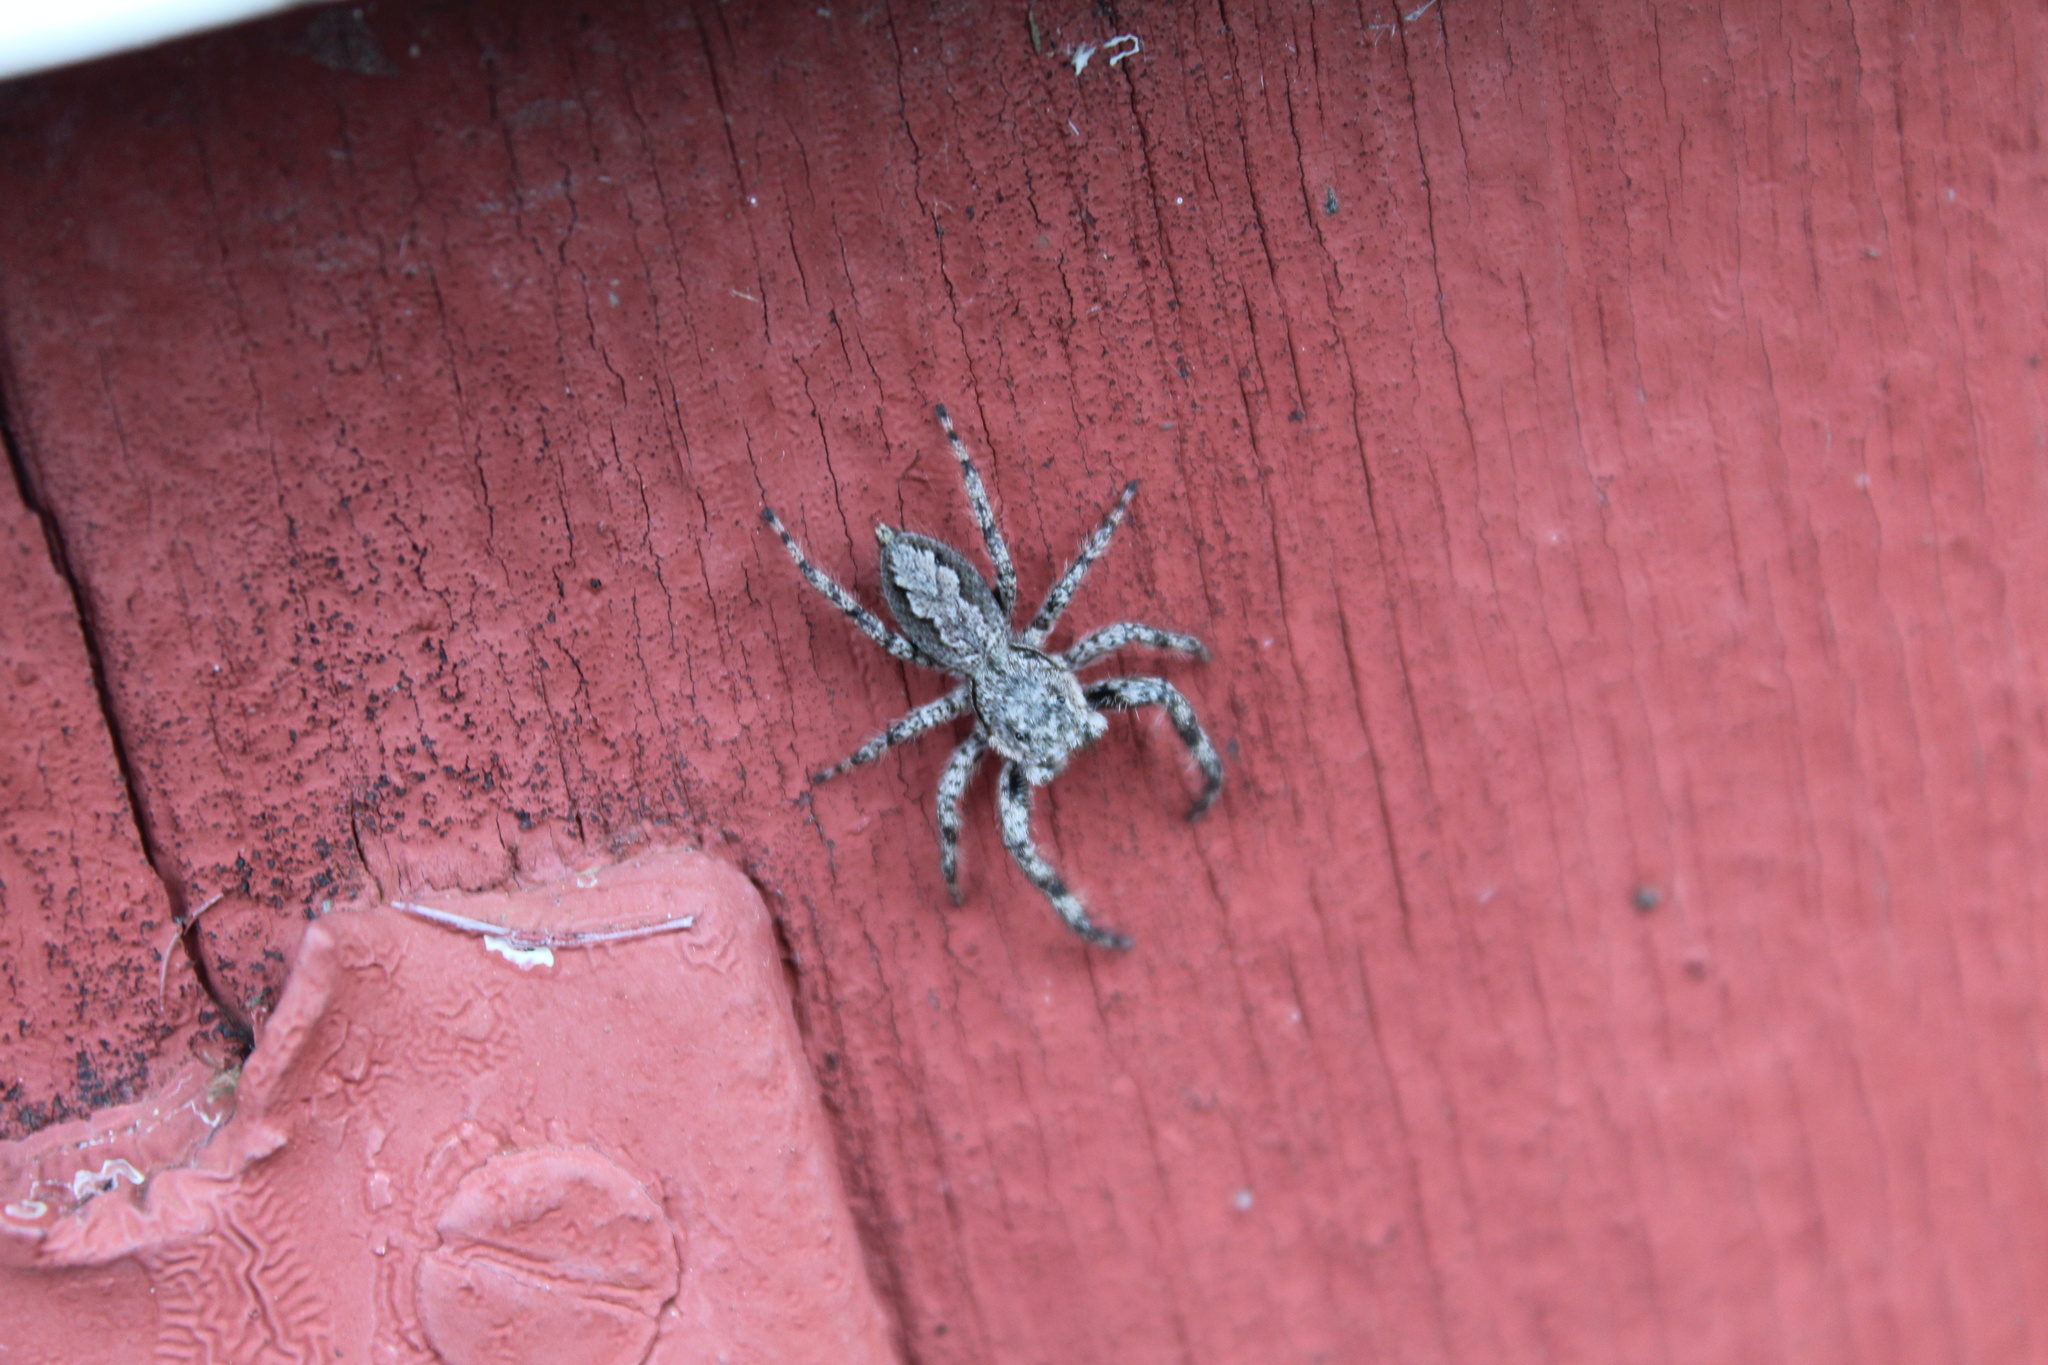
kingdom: Animalia
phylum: Arthropoda
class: Arachnida
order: Araneae
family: Salticidae
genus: Platycryptus
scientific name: Platycryptus undatus
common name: Tan jumping spider
